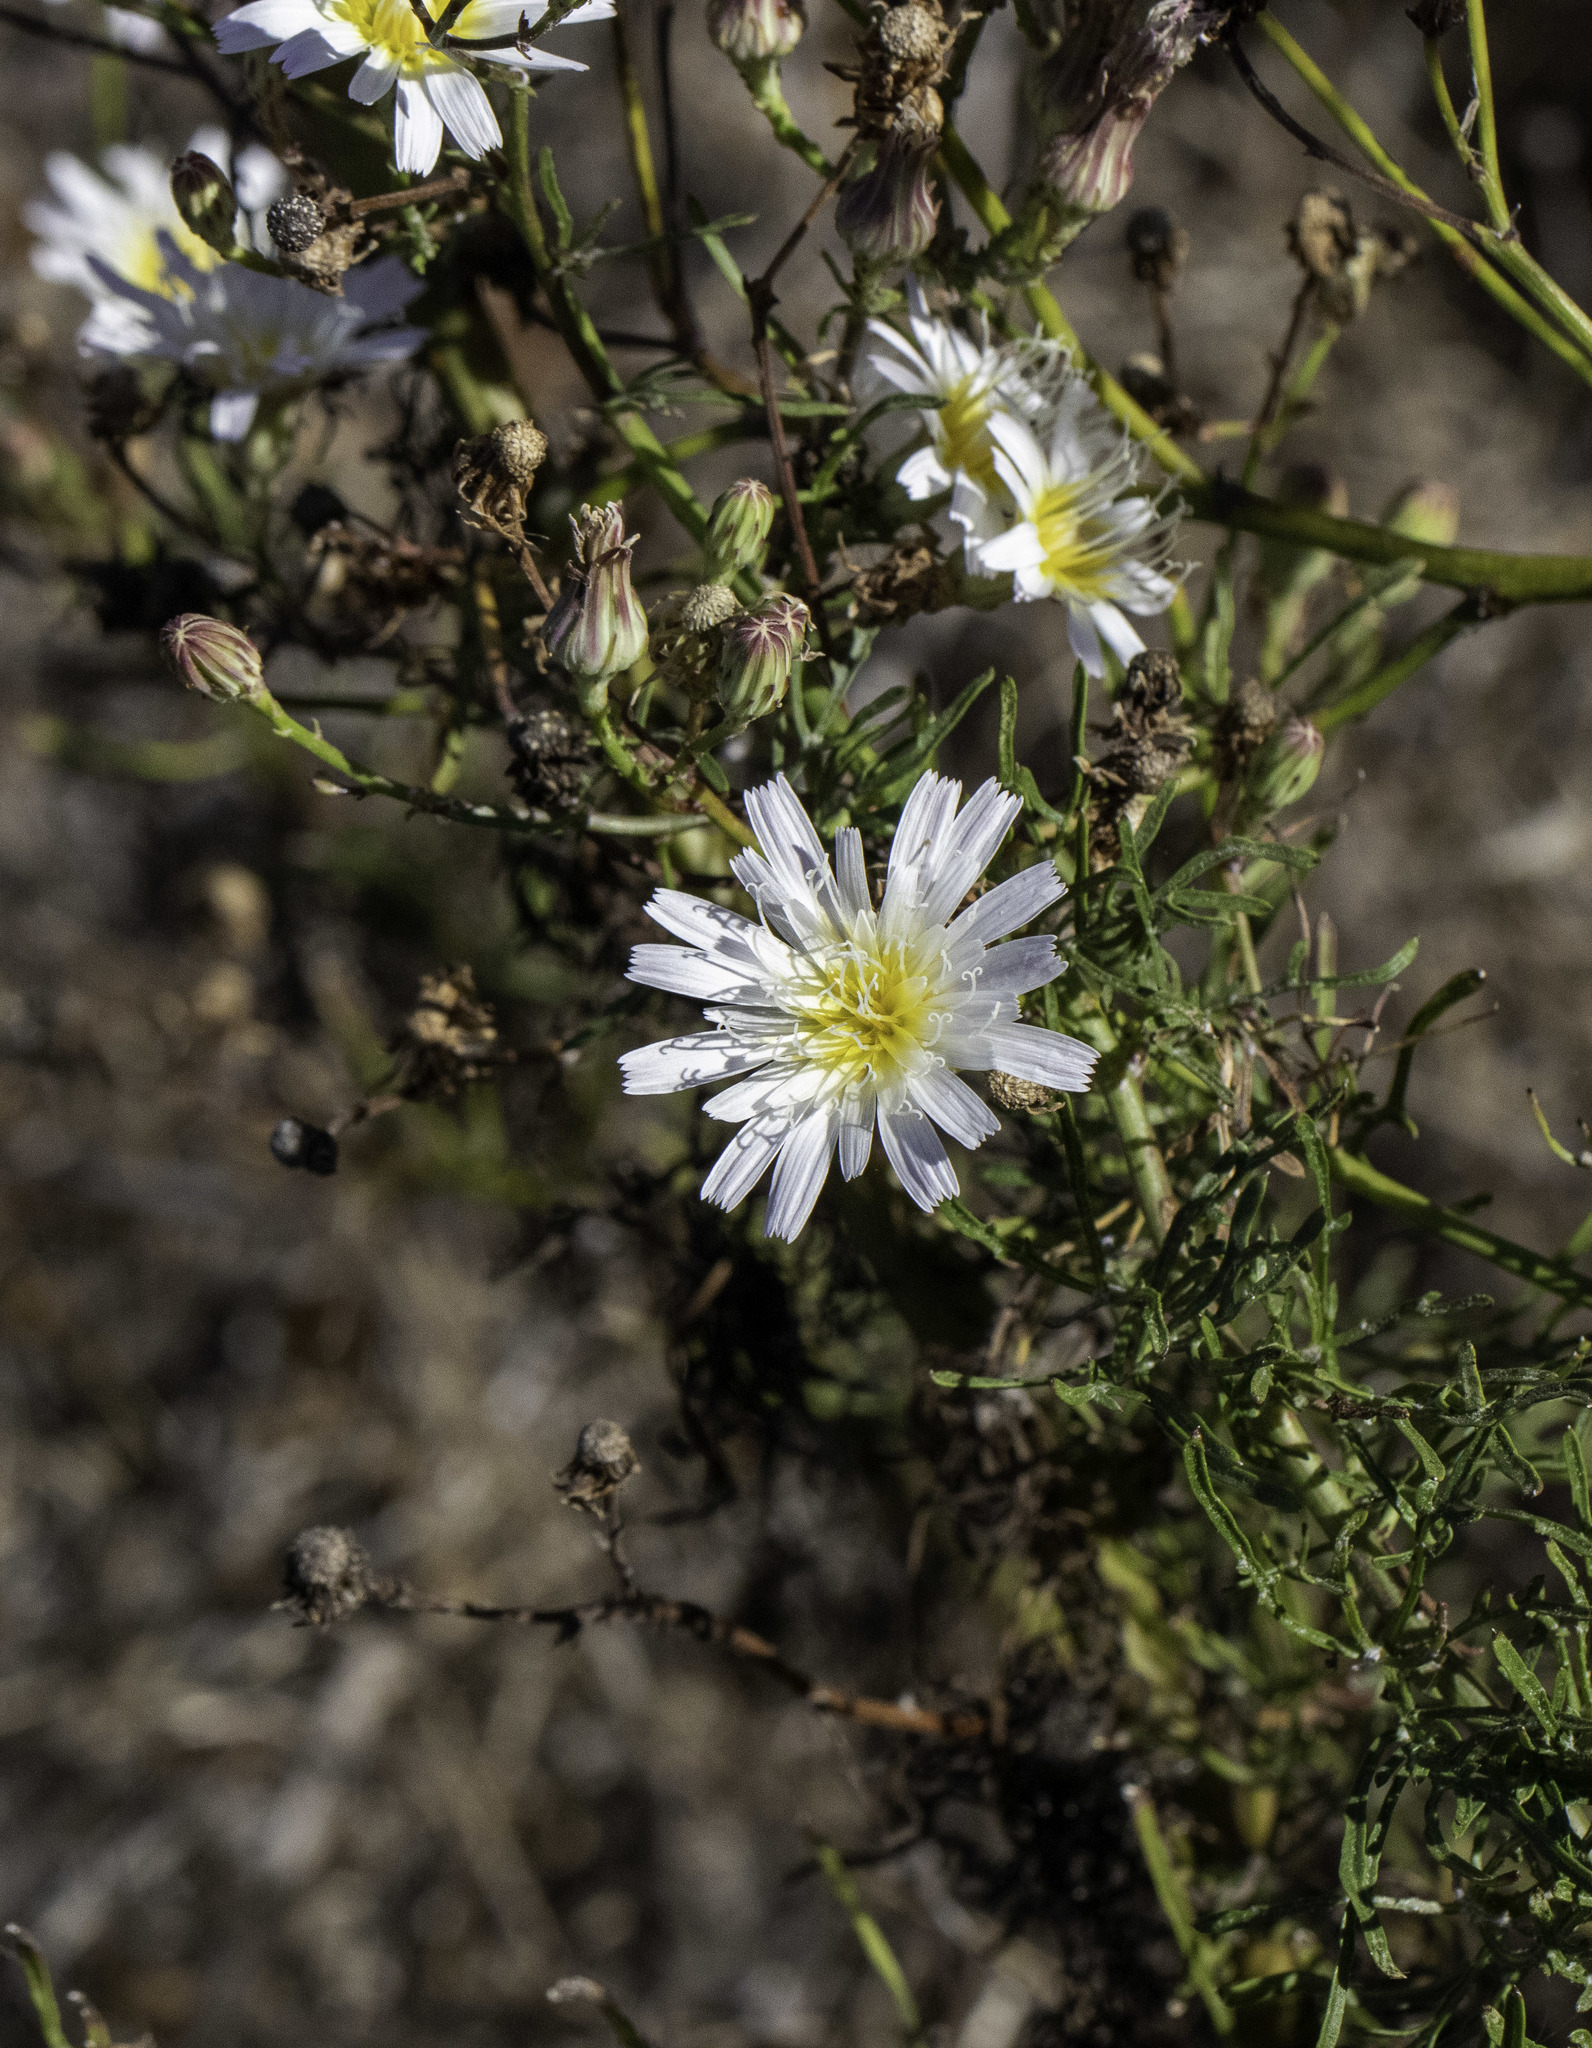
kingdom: Plantae
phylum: Tracheophyta
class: Magnoliopsida
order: Asterales
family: Asteraceae
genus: Malacothrix
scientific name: Malacothrix saxatilis
